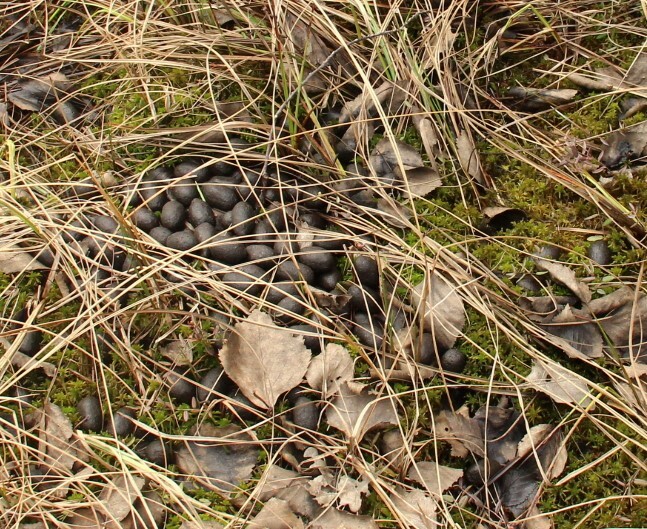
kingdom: Animalia
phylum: Chordata
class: Mammalia
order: Artiodactyla
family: Cervidae
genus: Alces
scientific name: Alces alces
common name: Moose
